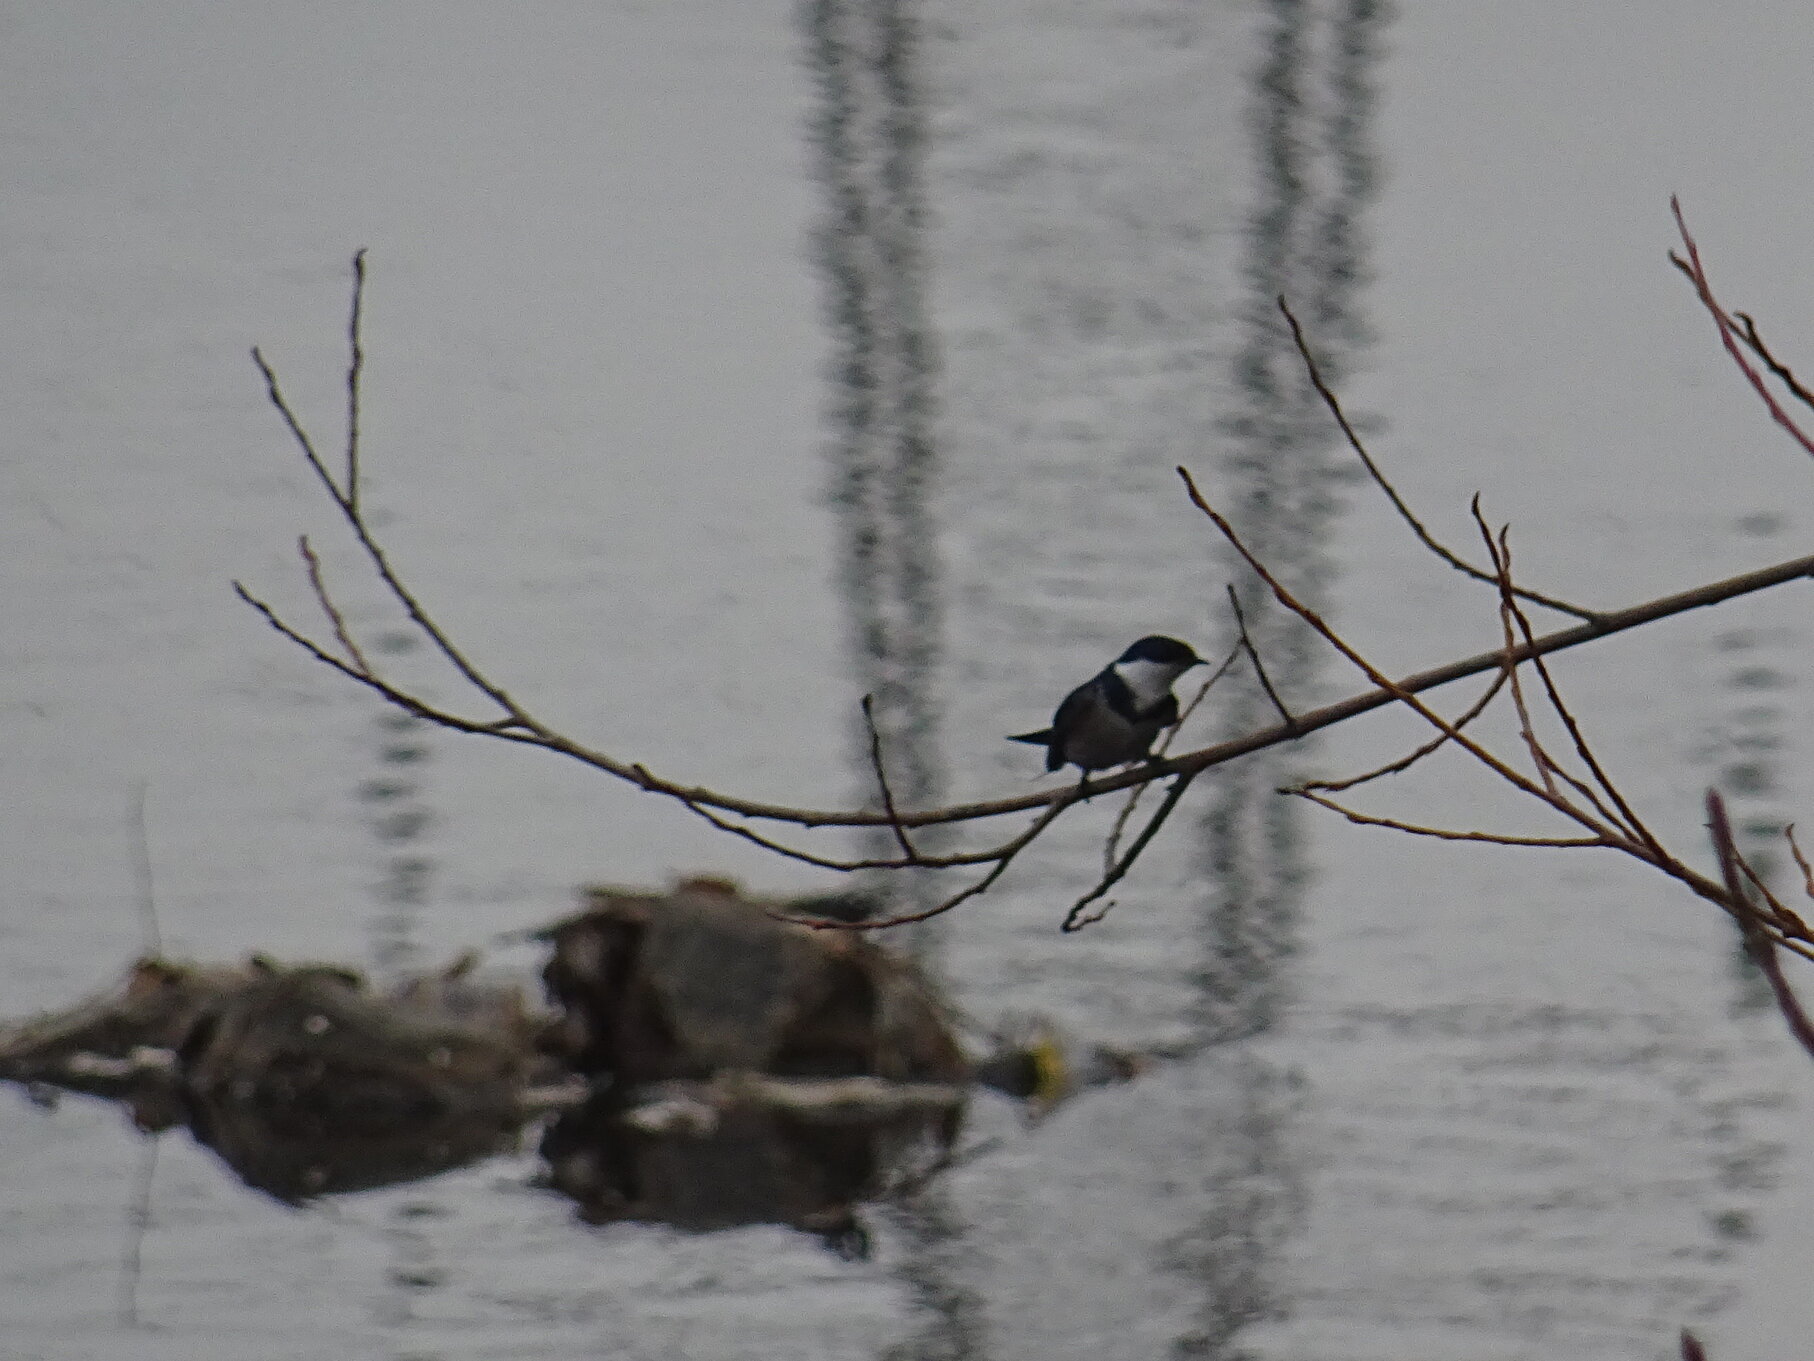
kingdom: Animalia
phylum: Chordata
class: Aves
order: Passeriformes
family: Hirundinidae
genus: Hirundo
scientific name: Hirundo albigularis
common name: White-throated swallow
